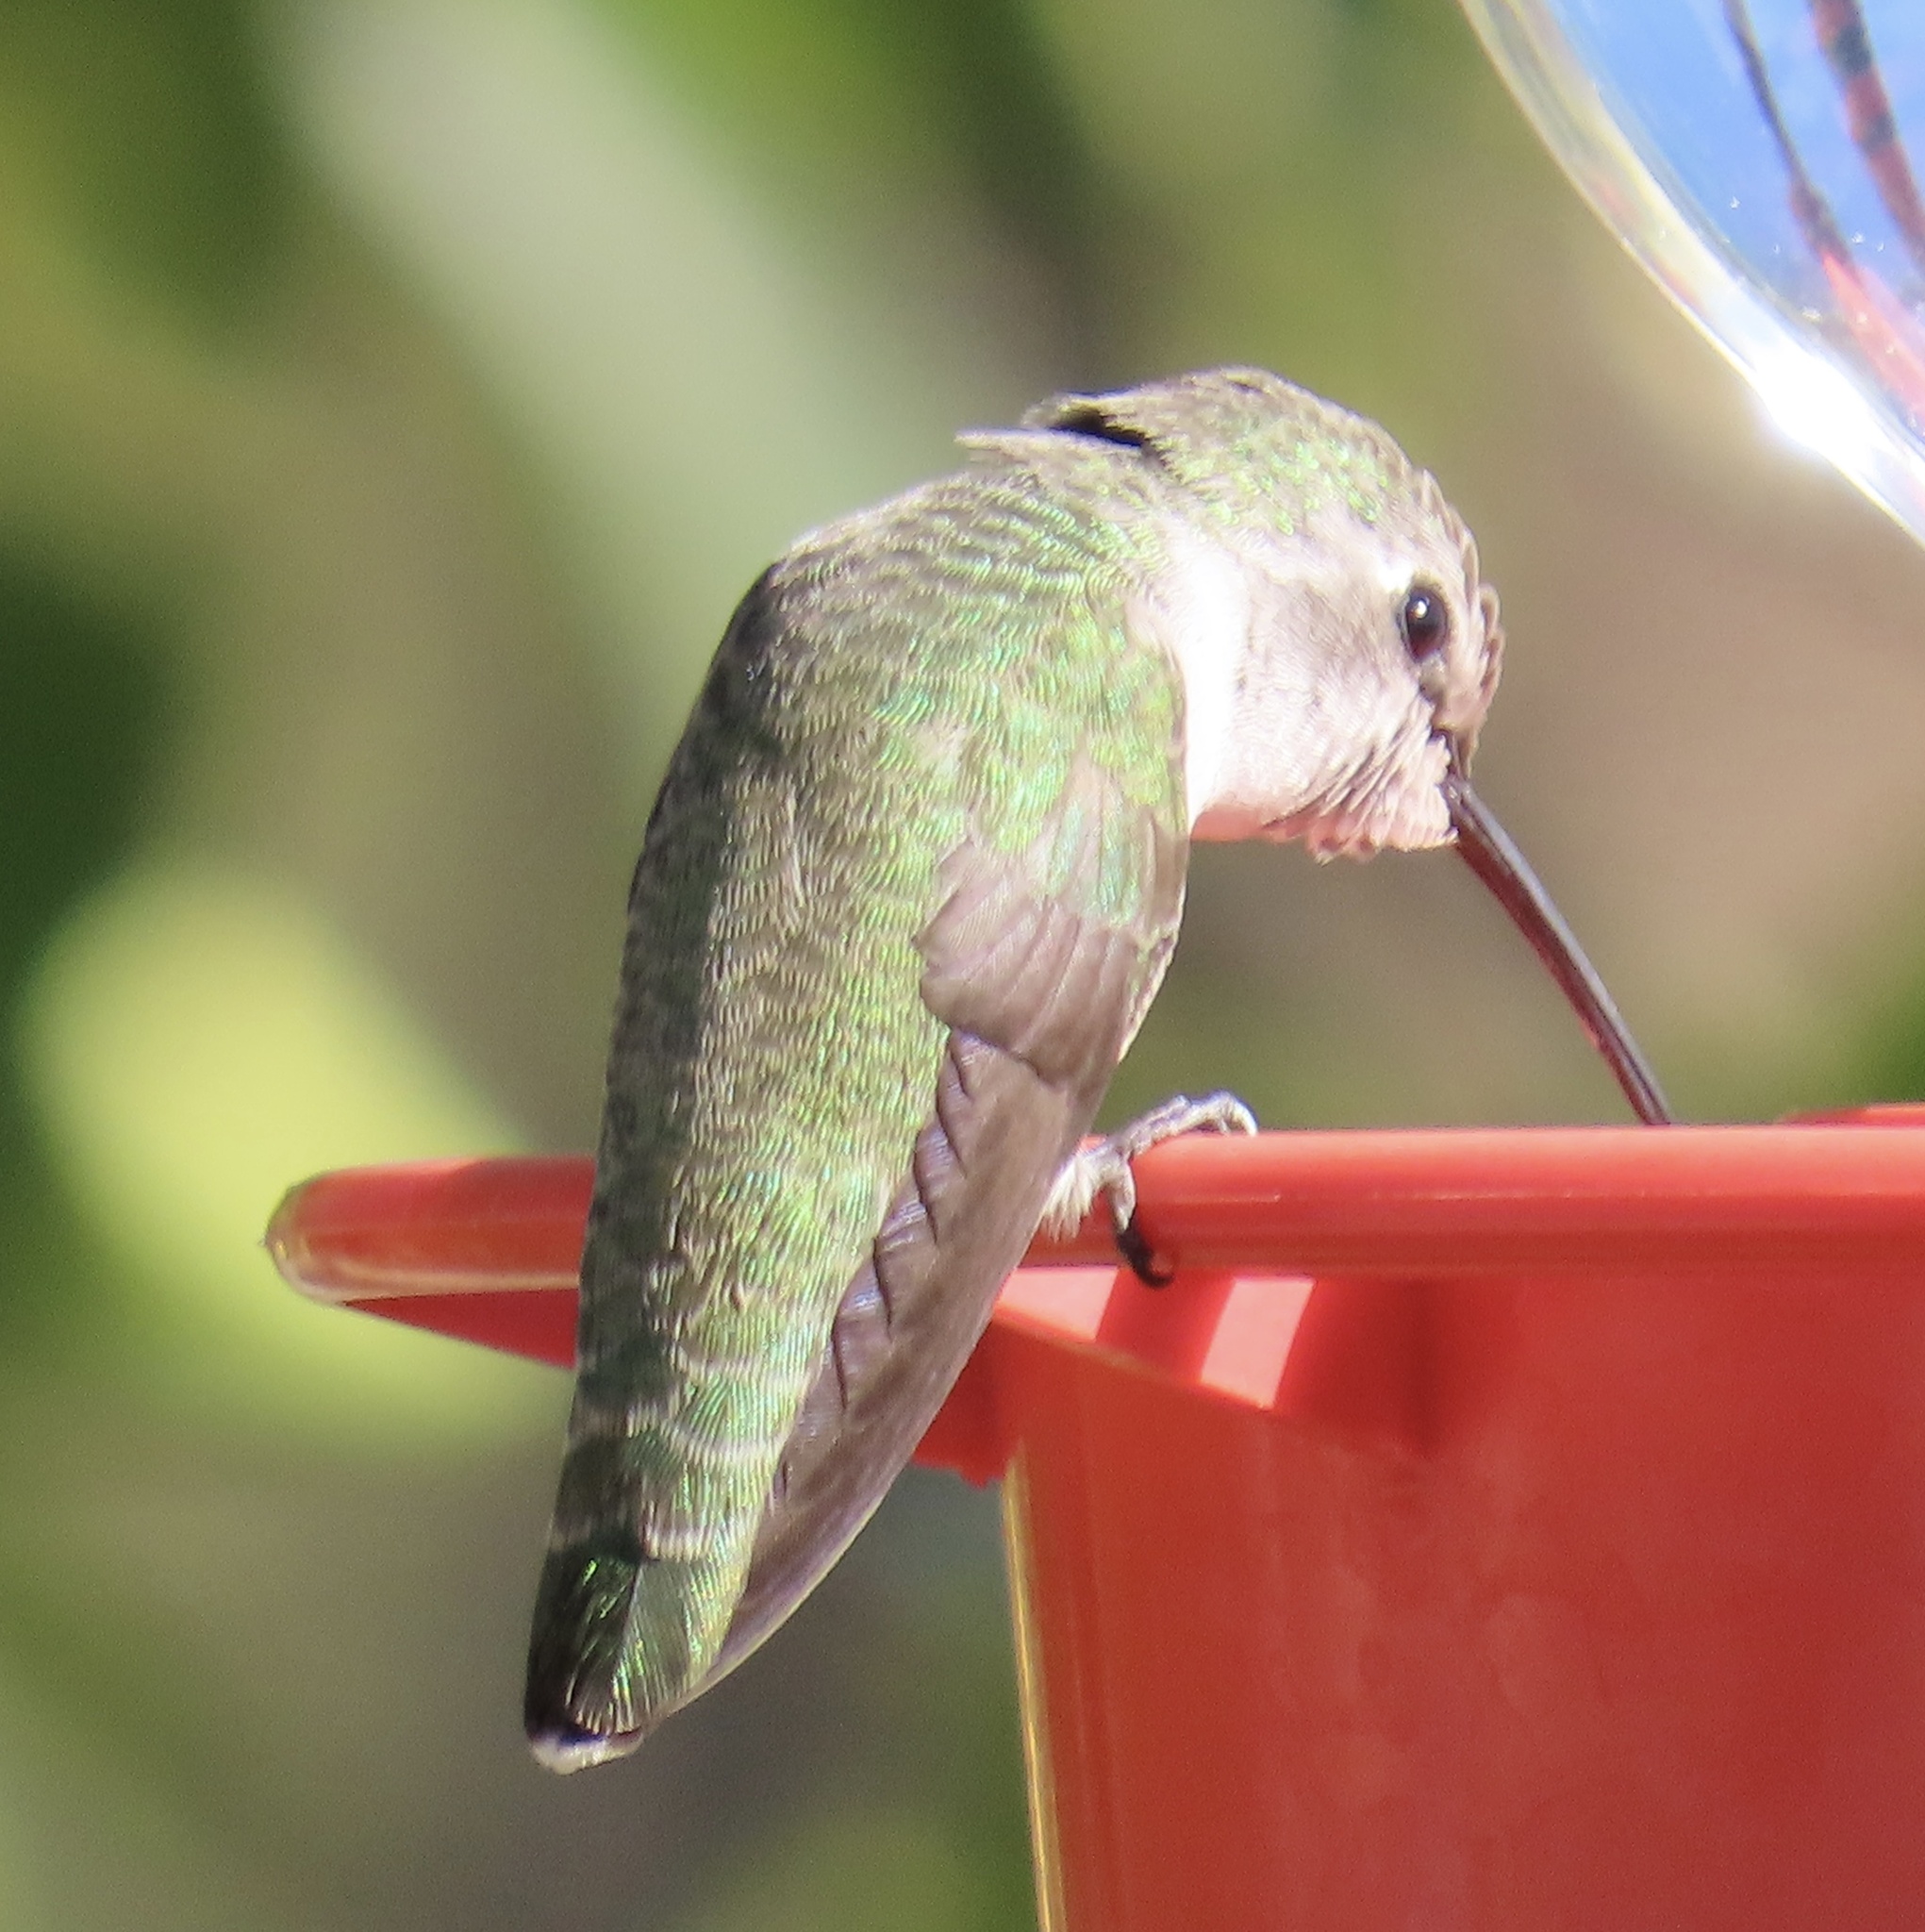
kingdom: Animalia
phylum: Chordata
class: Aves
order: Apodiformes
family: Trochilidae
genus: Calypte
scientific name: Calypte costae
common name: Costa's hummingbird
